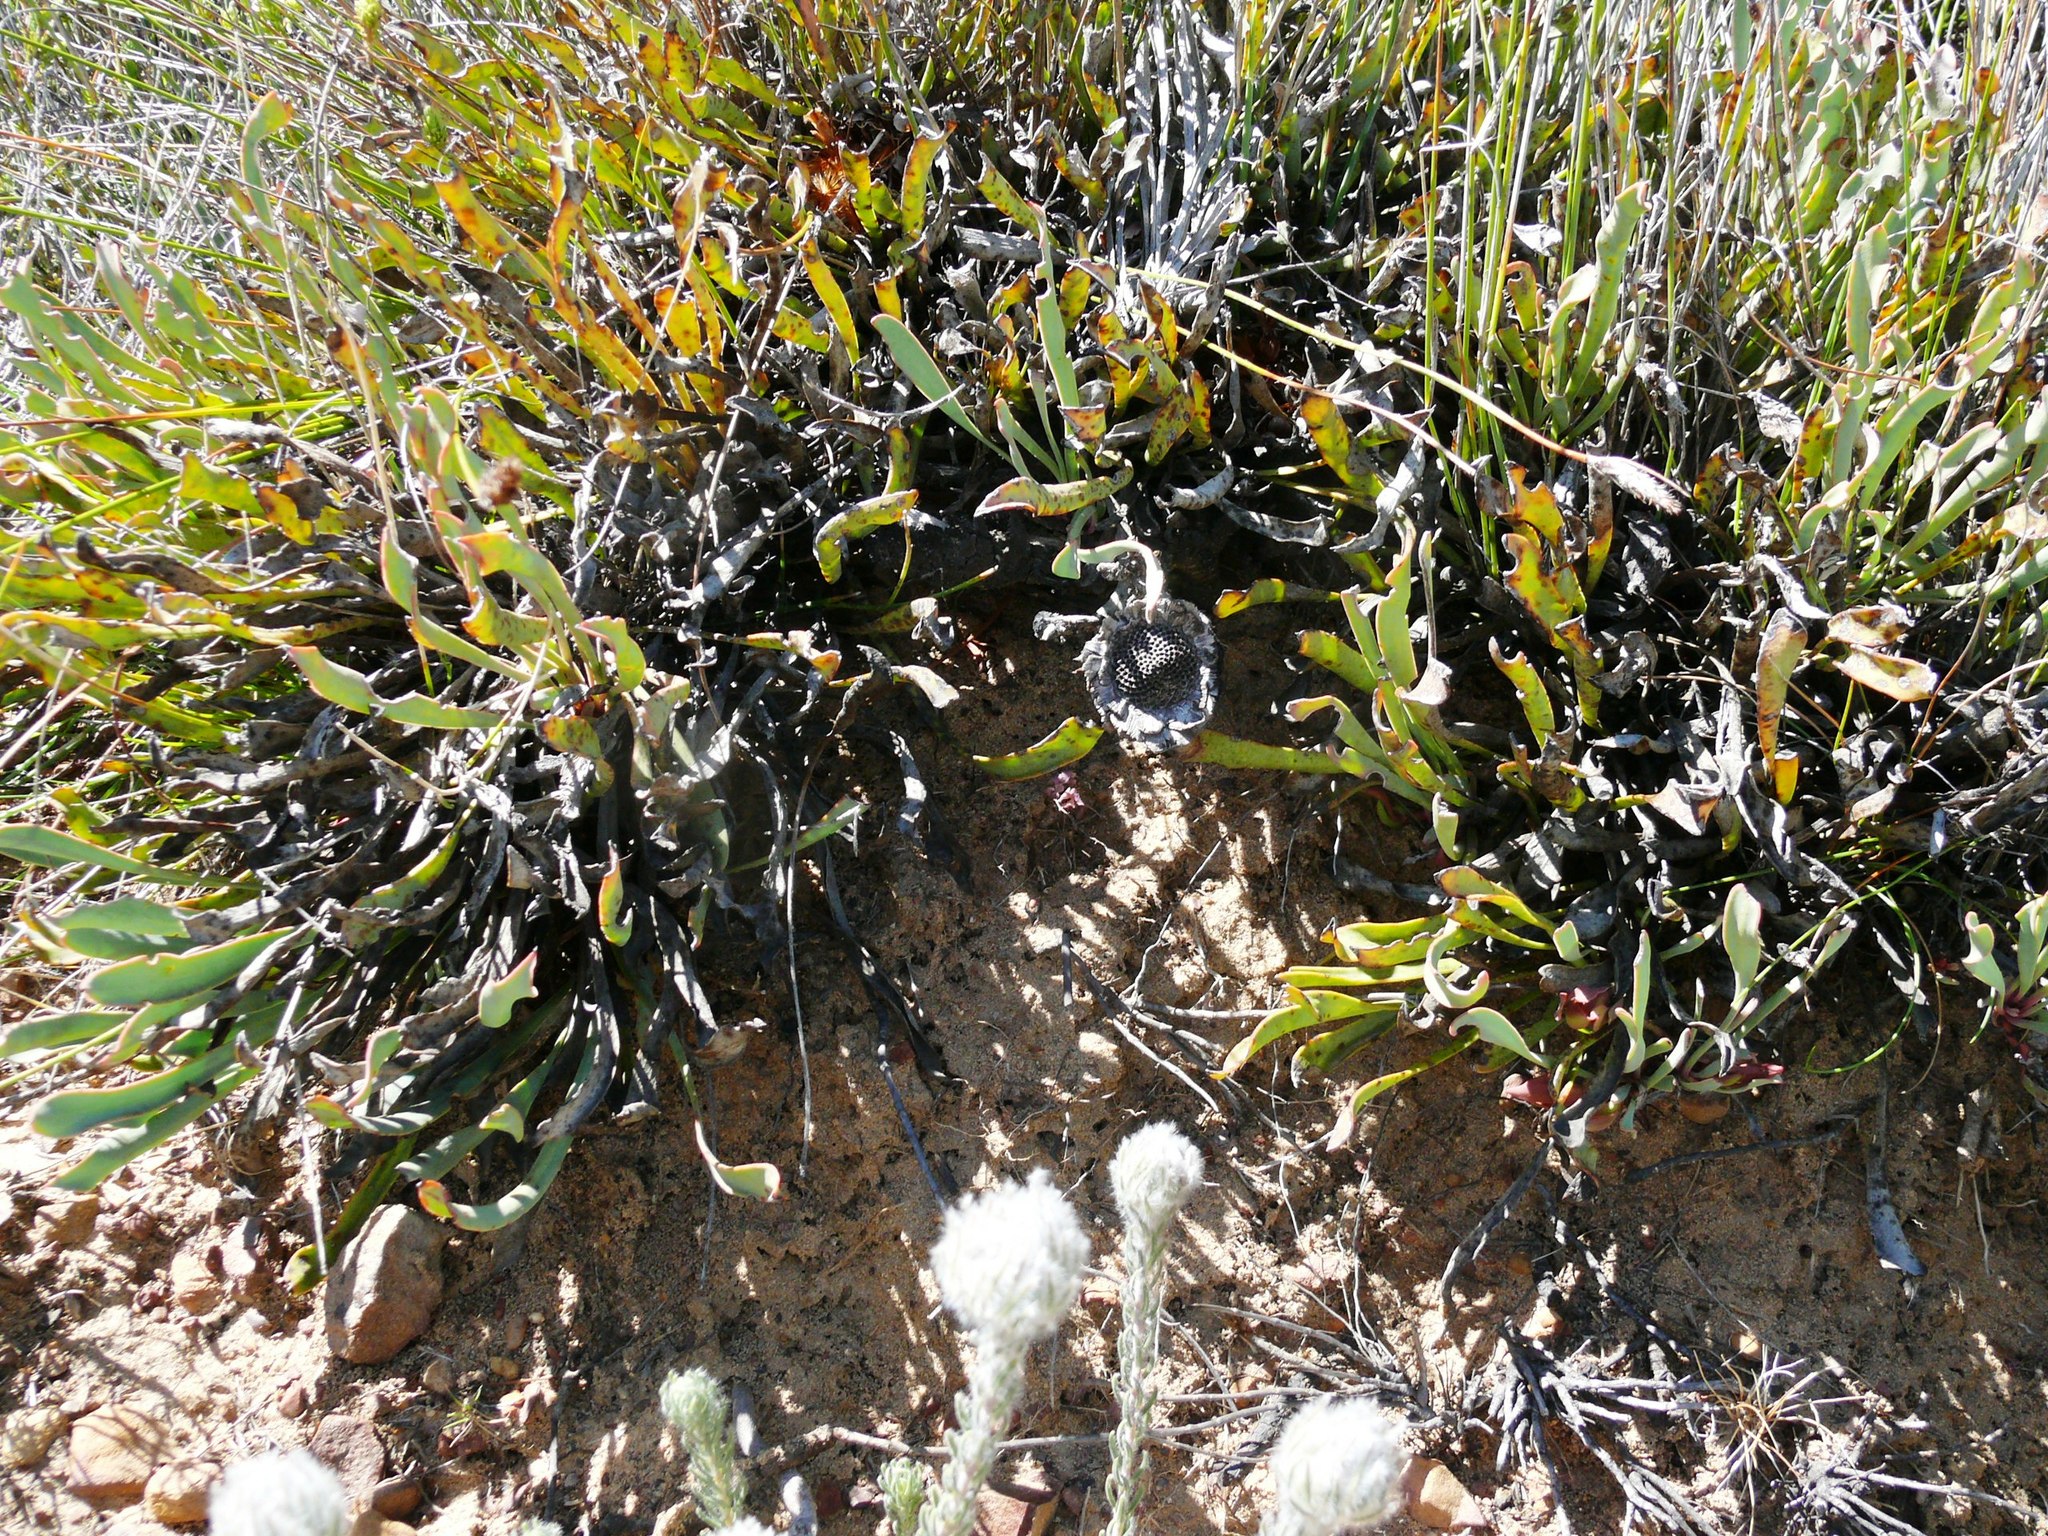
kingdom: Plantae
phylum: Tracheophyta
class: Magnoliopsida
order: Proteales
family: Proteaceae
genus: Protea
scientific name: Protea laevis
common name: Smooth-leaf sugarbush
